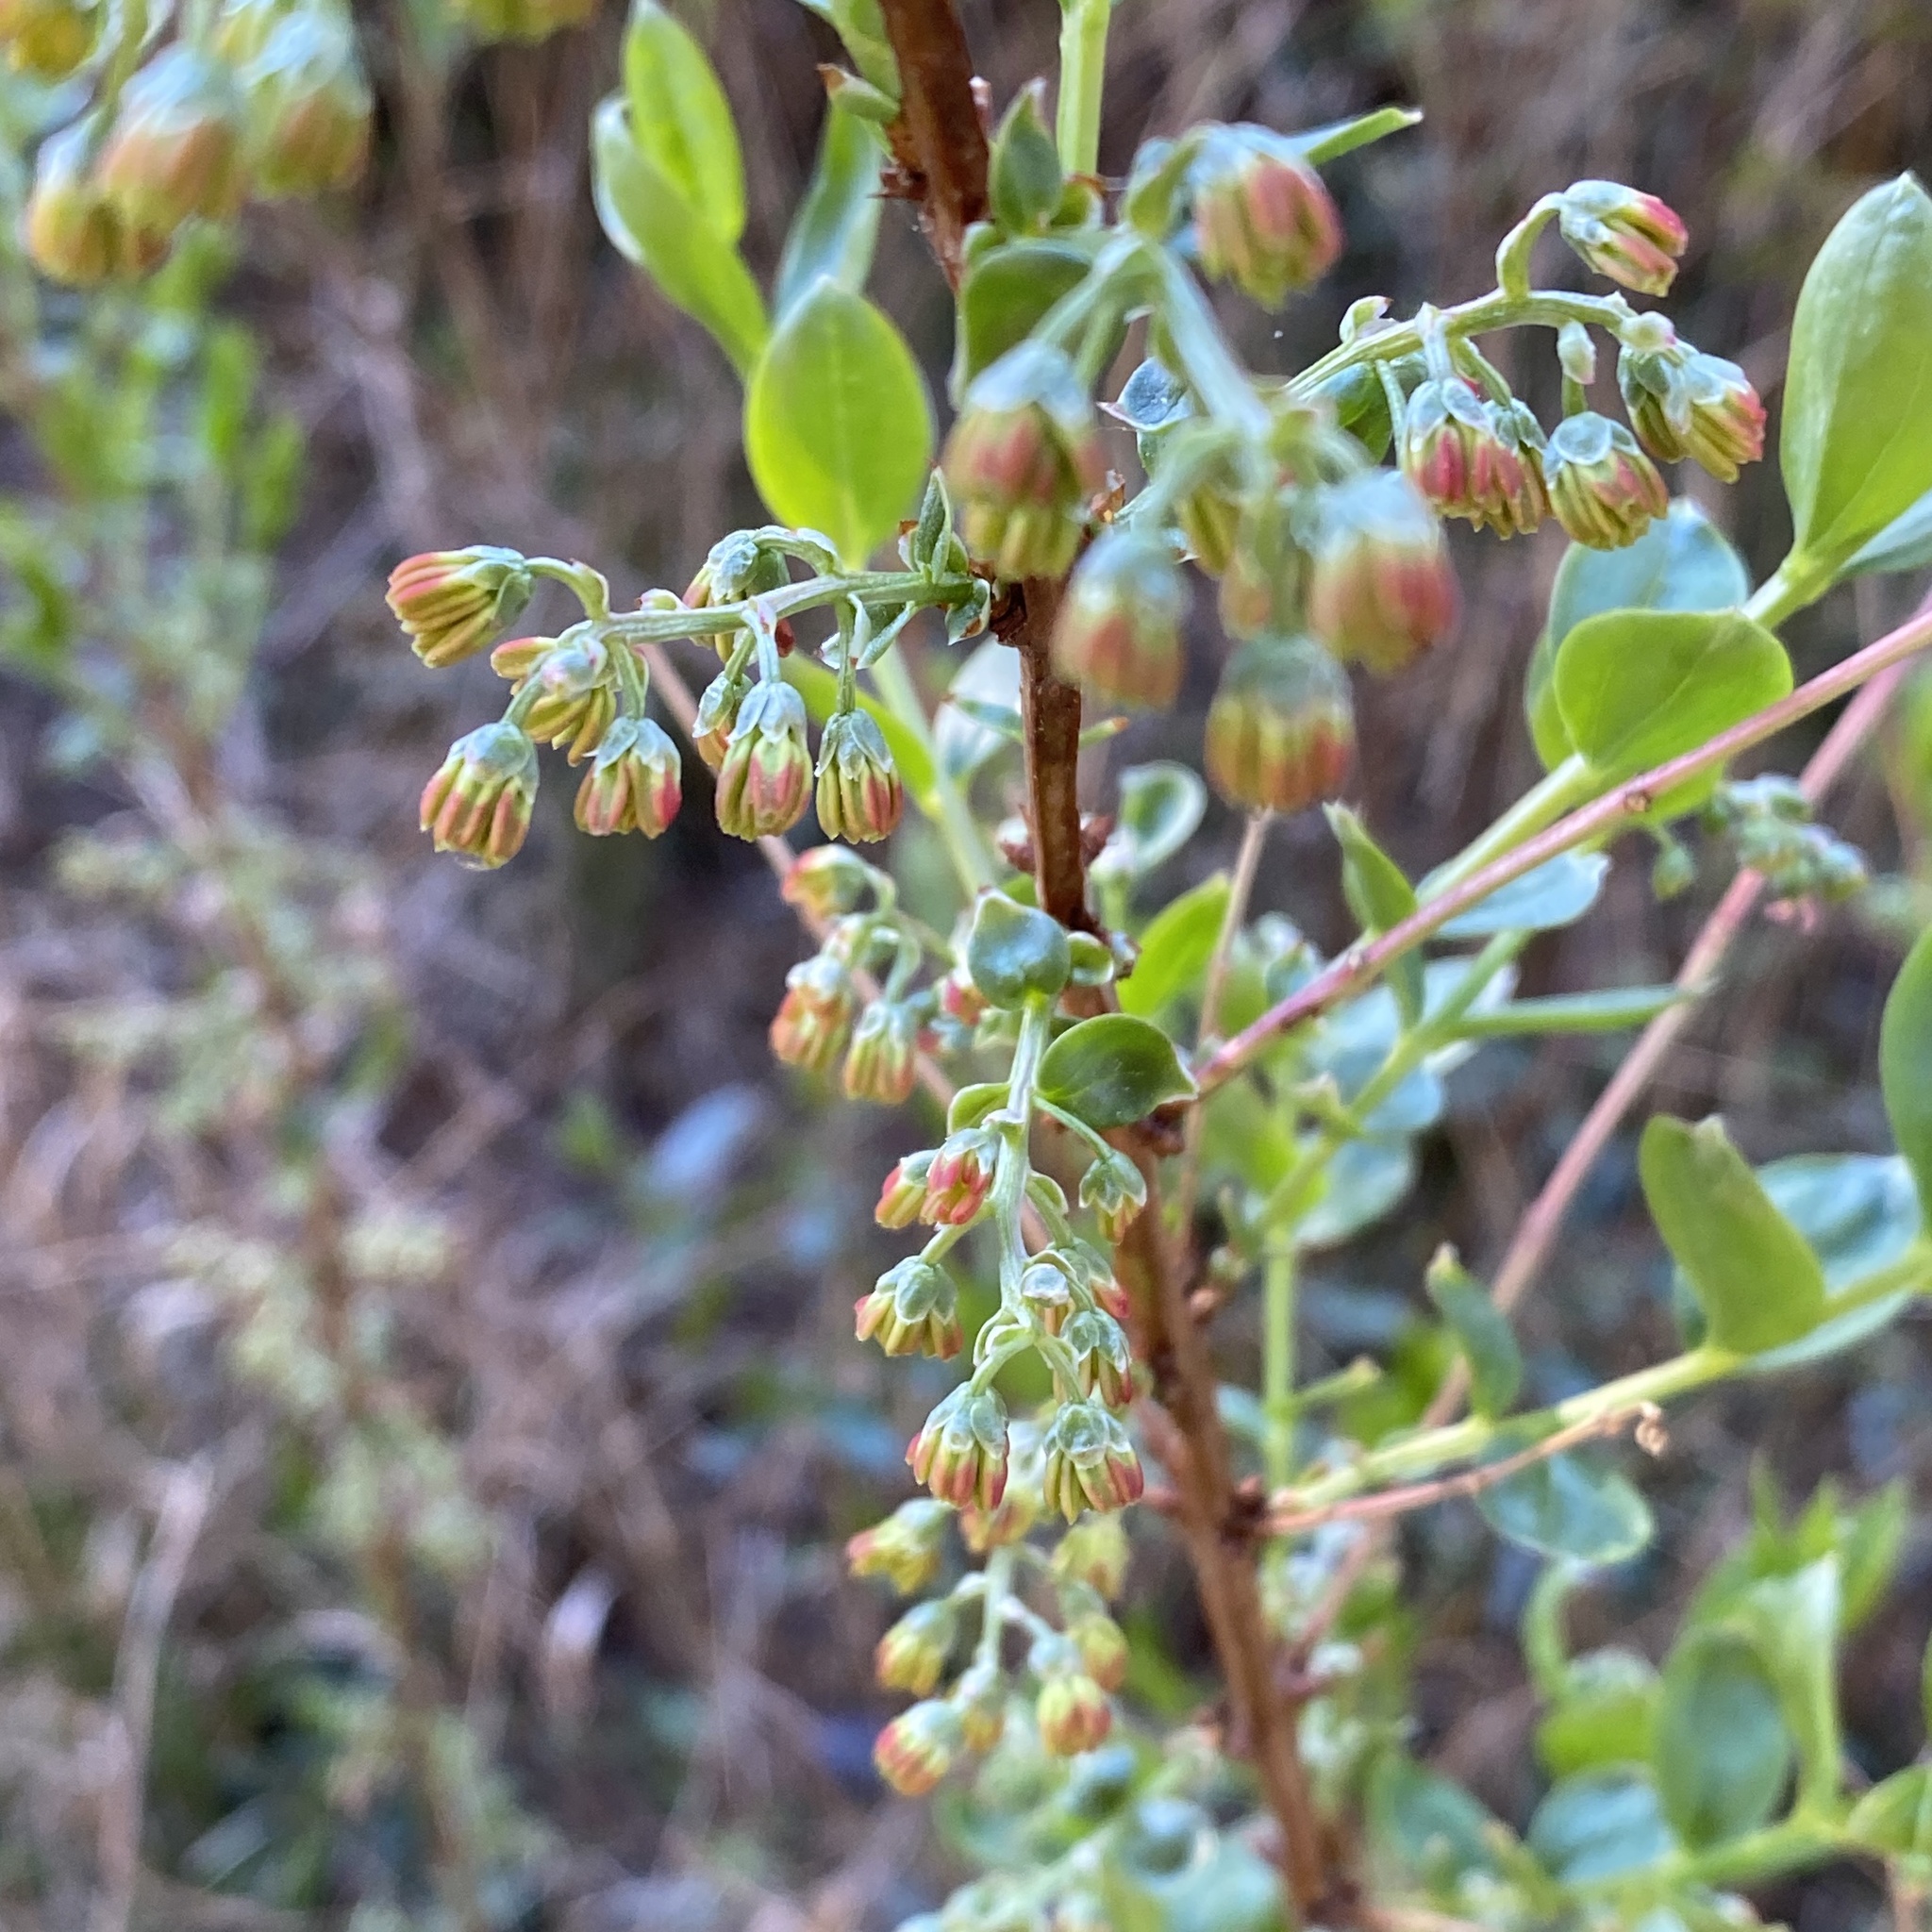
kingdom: Plantae
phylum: Tracheophyta
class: Magnoliopsida
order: Cucurbitales
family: Coriariaceae
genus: Coriaria
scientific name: Coriaria myrtifolia
